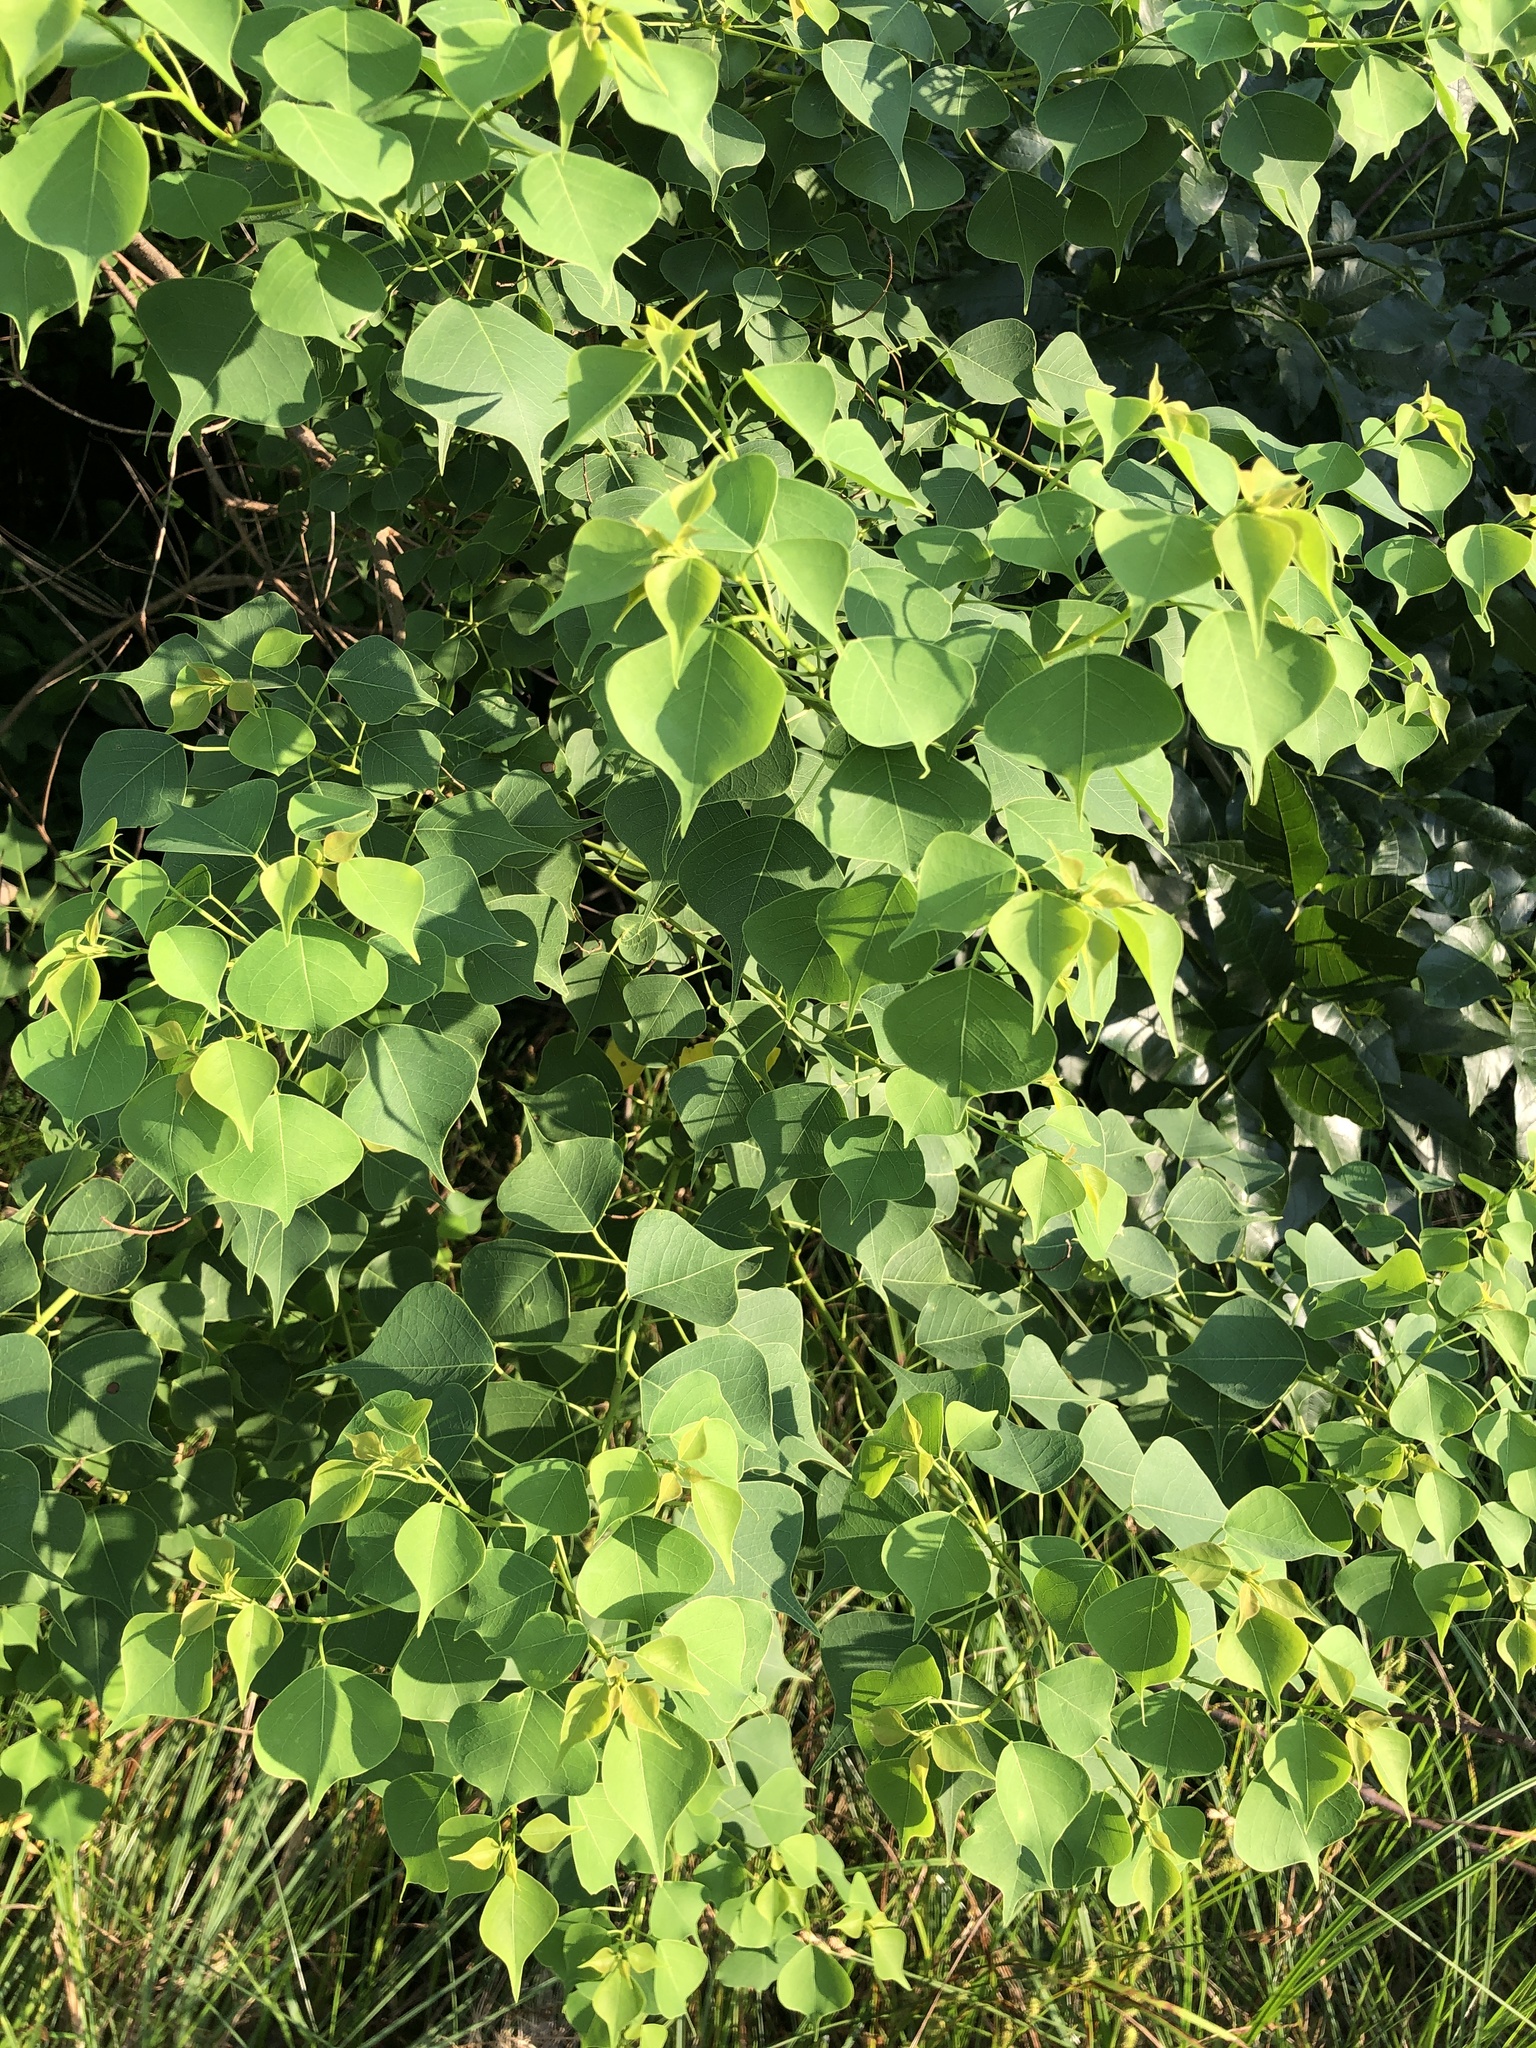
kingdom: Plantae
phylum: Tracheophyta
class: Magnoliopsida
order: Malpighiales
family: Euphorbiaceae
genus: Triadica
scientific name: Triadica sebifera
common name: Chinese tallow
